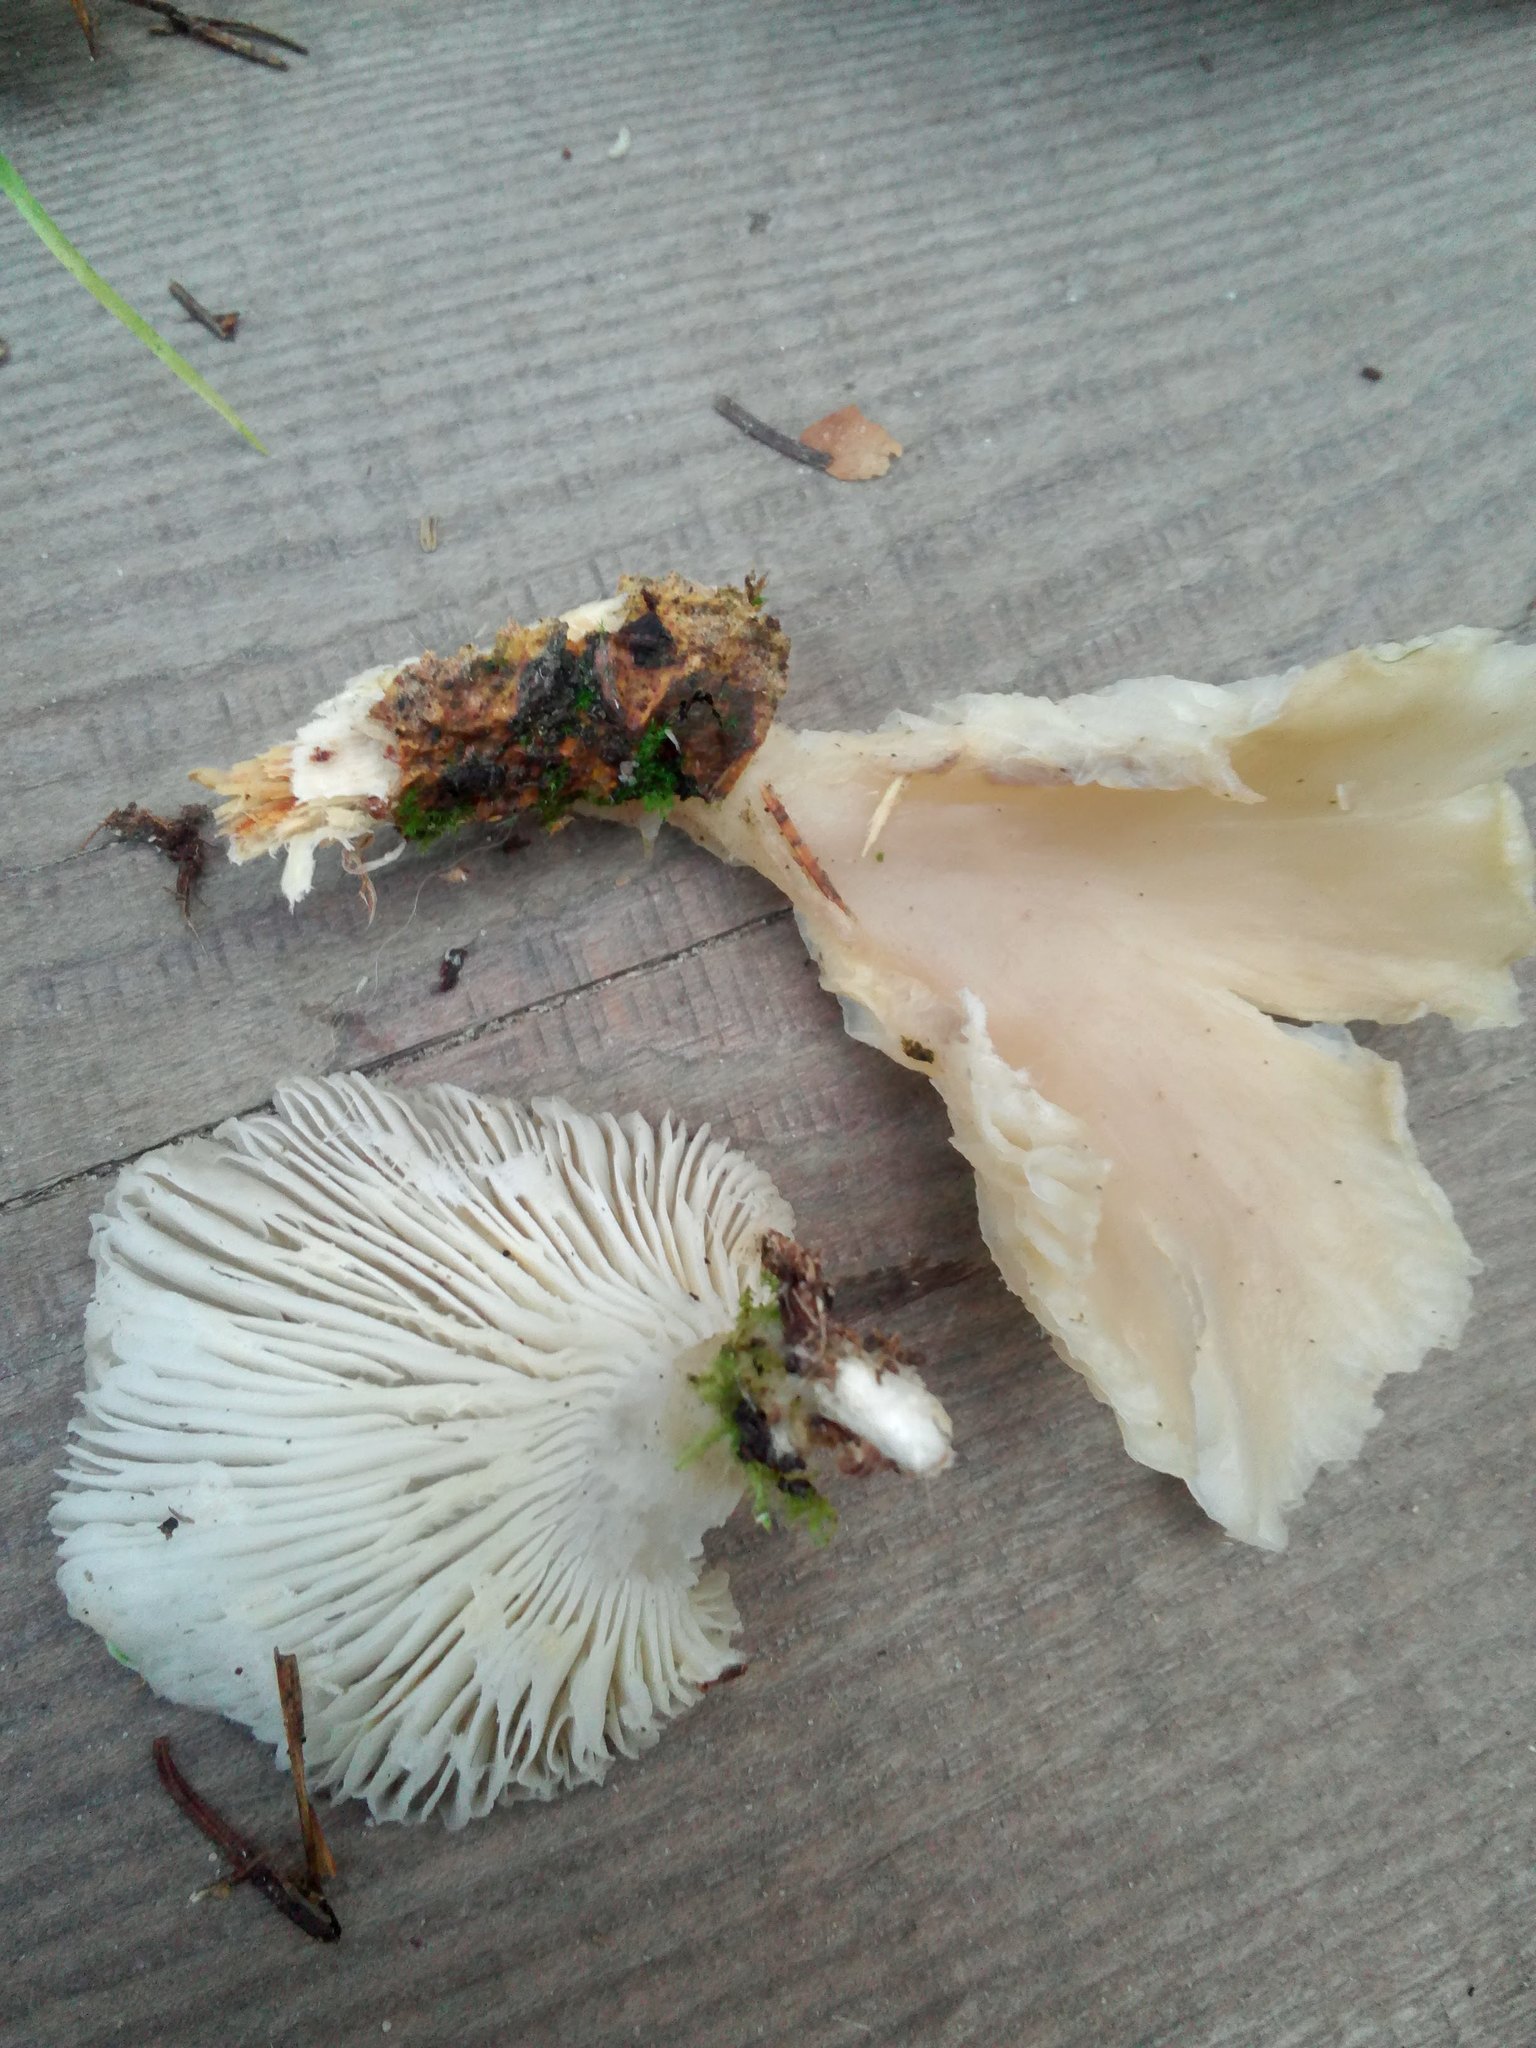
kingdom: Fungi
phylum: Basidiomycota
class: Agaricomycetes
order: Agaricales
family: Pleurotaceae
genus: Pleurotus
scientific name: Pleurotus pulmonarius
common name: Pale oyster
